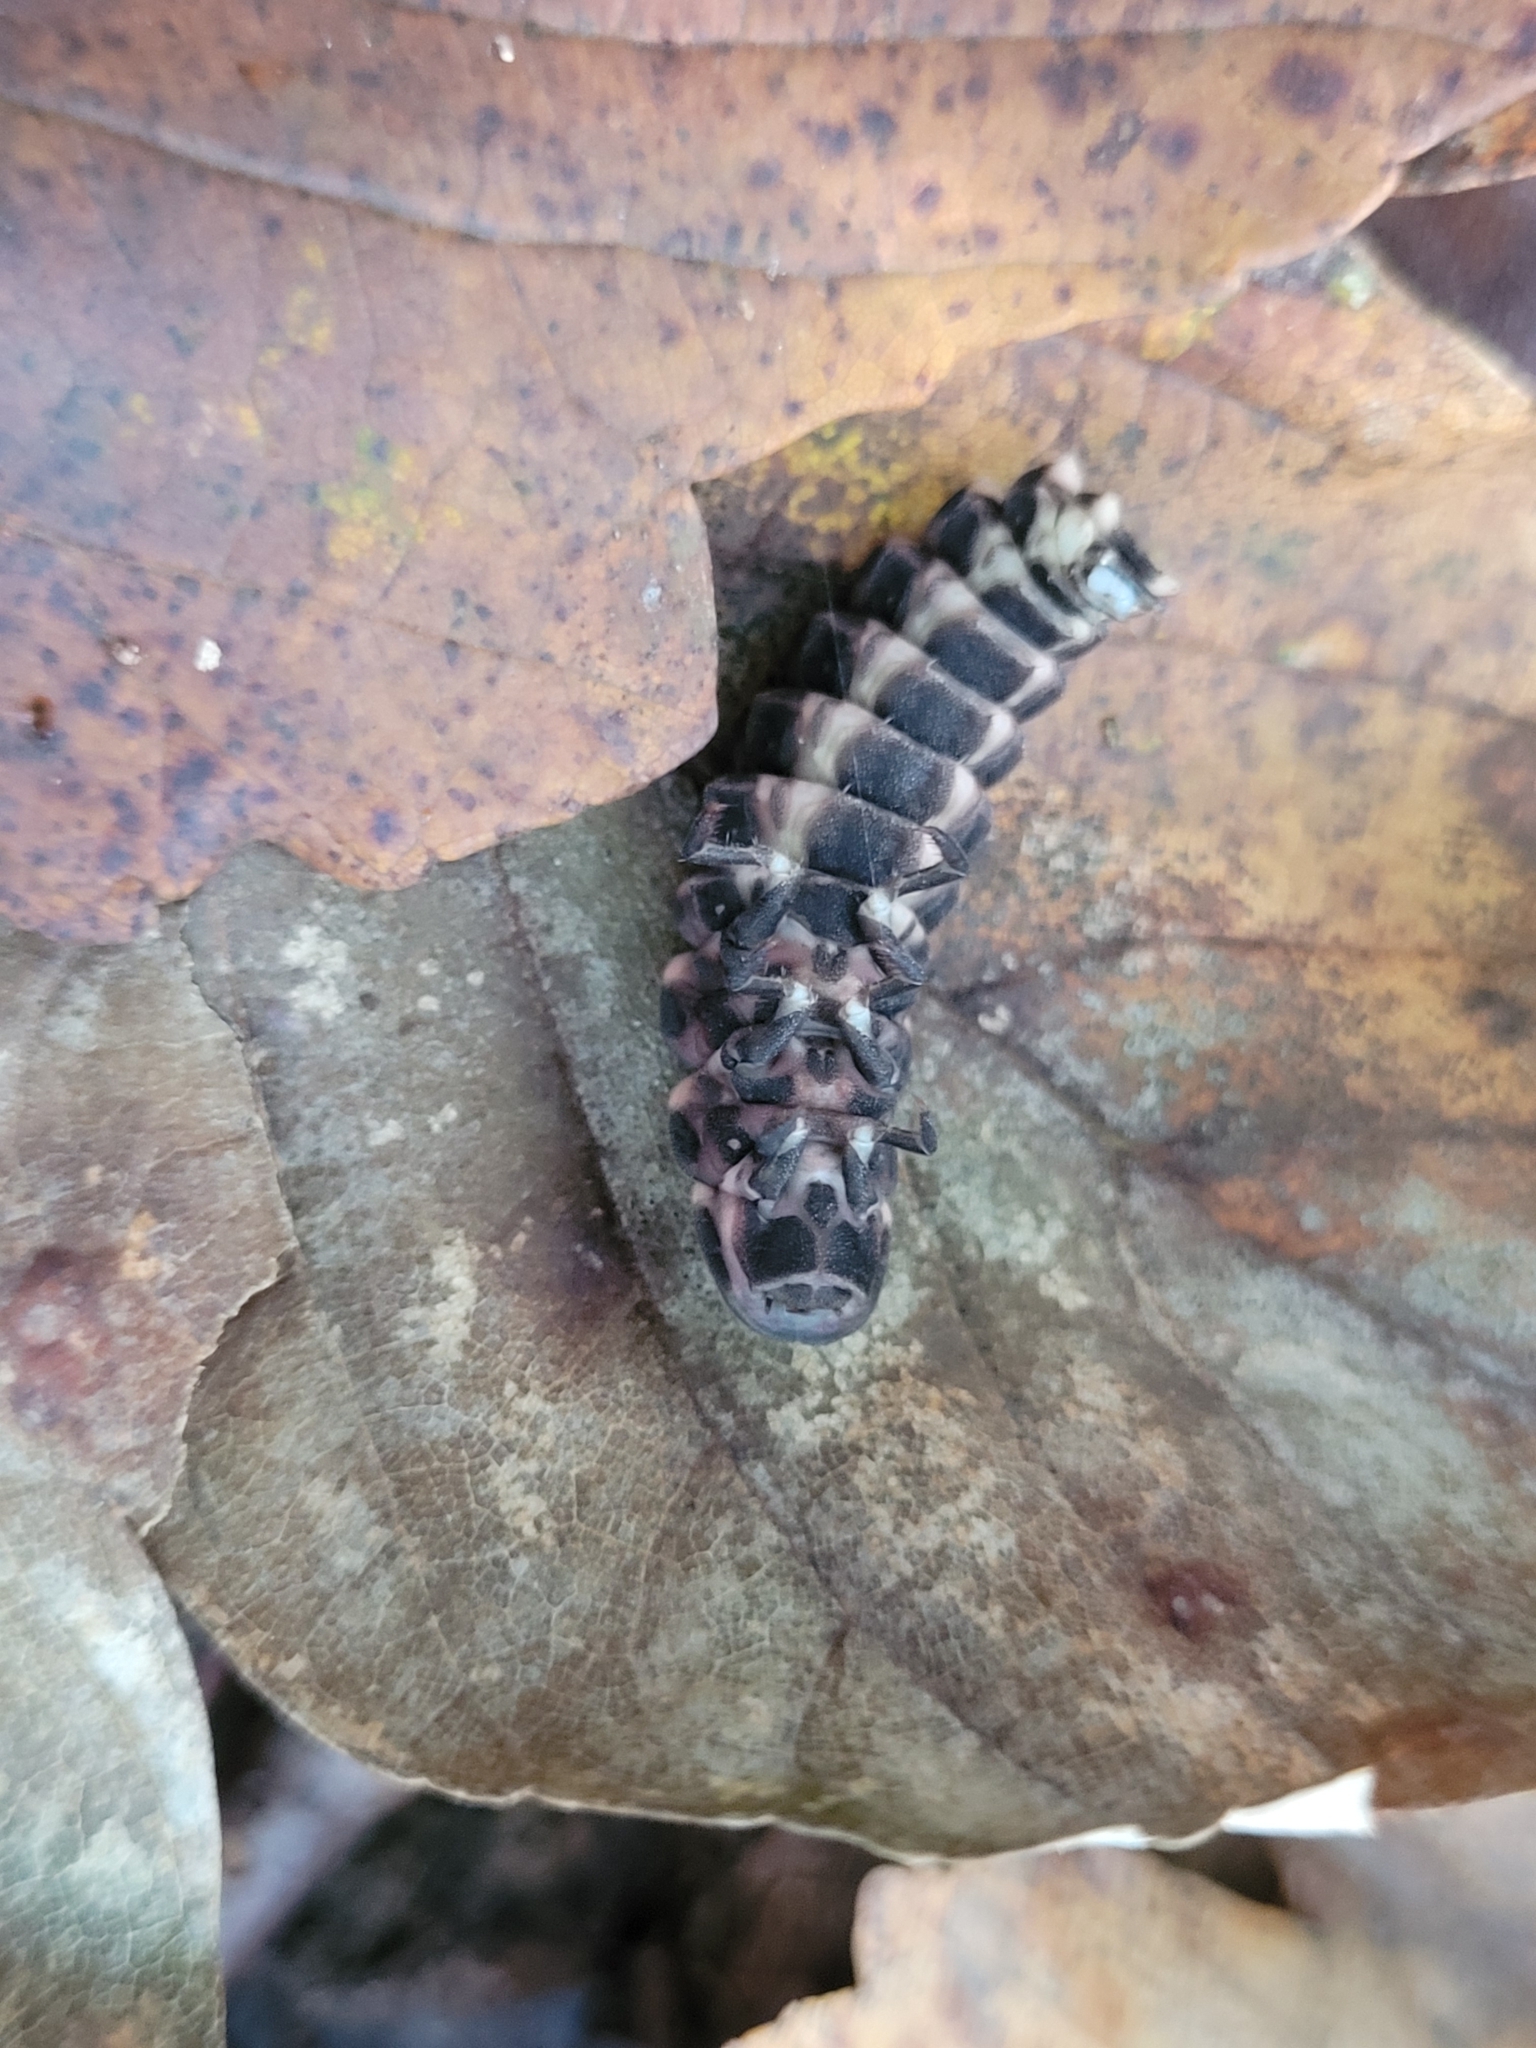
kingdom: Animalia
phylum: Arthropoda
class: Insecta
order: Coleoptera
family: Lampyridae
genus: Lampyris
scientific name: Lampyris noctiluca
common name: Glow-worm
